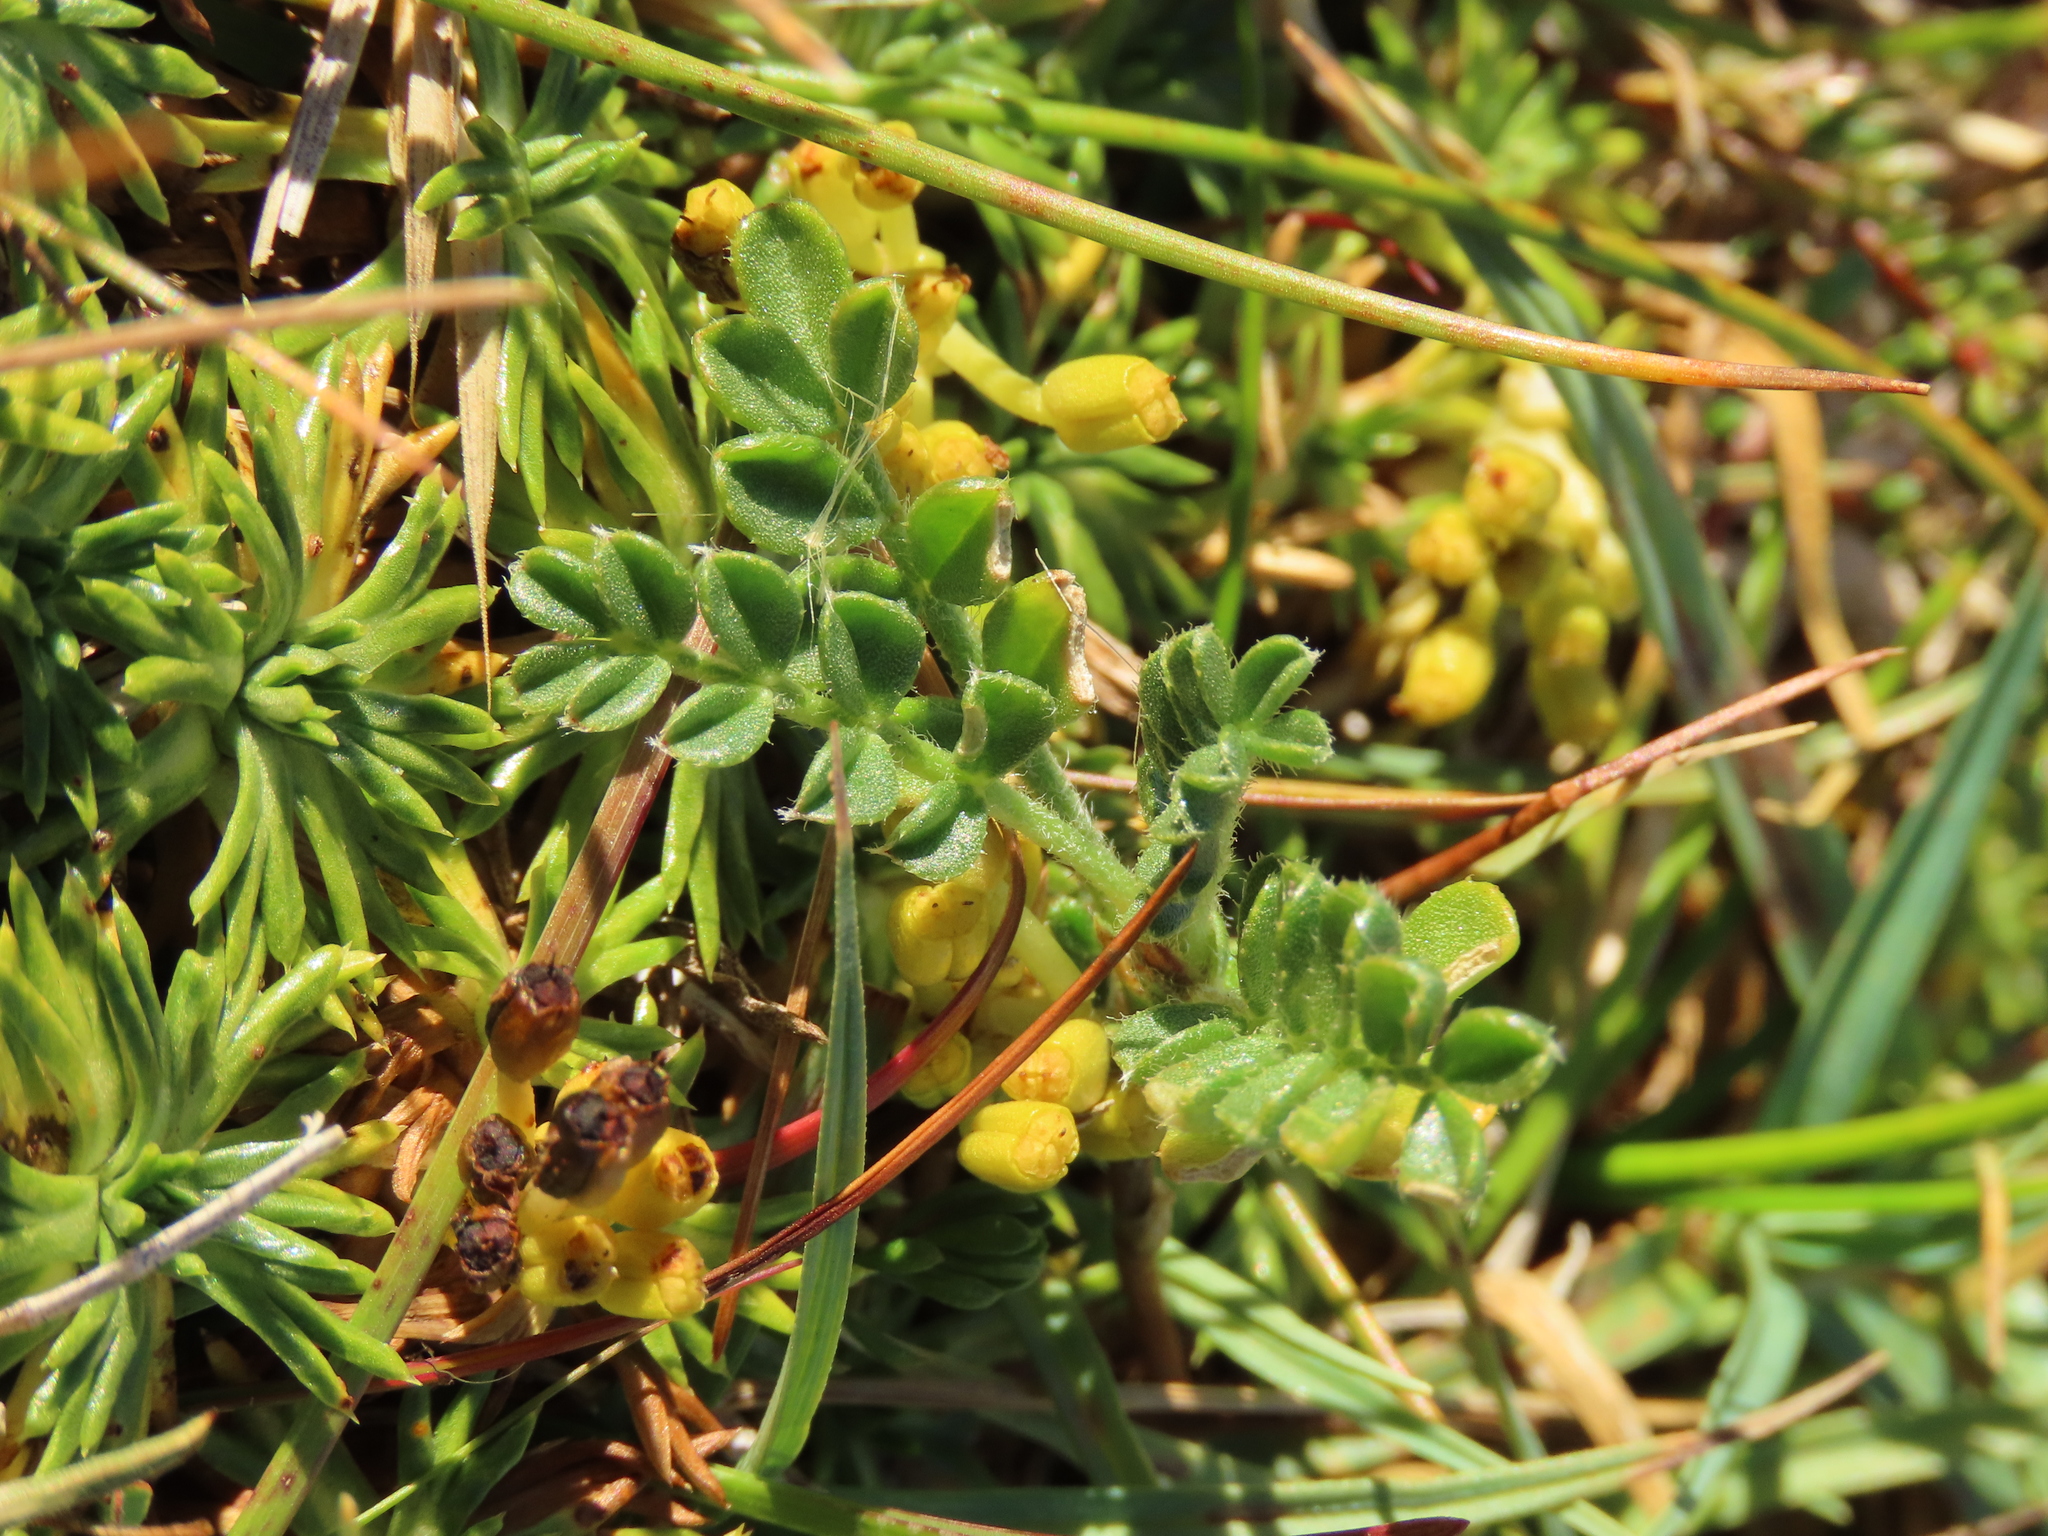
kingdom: Plantae
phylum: Tracheophyta
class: Magnoliopsida
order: Fabales
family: Fabaceae
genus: Adesmia
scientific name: Adesmia pumila
